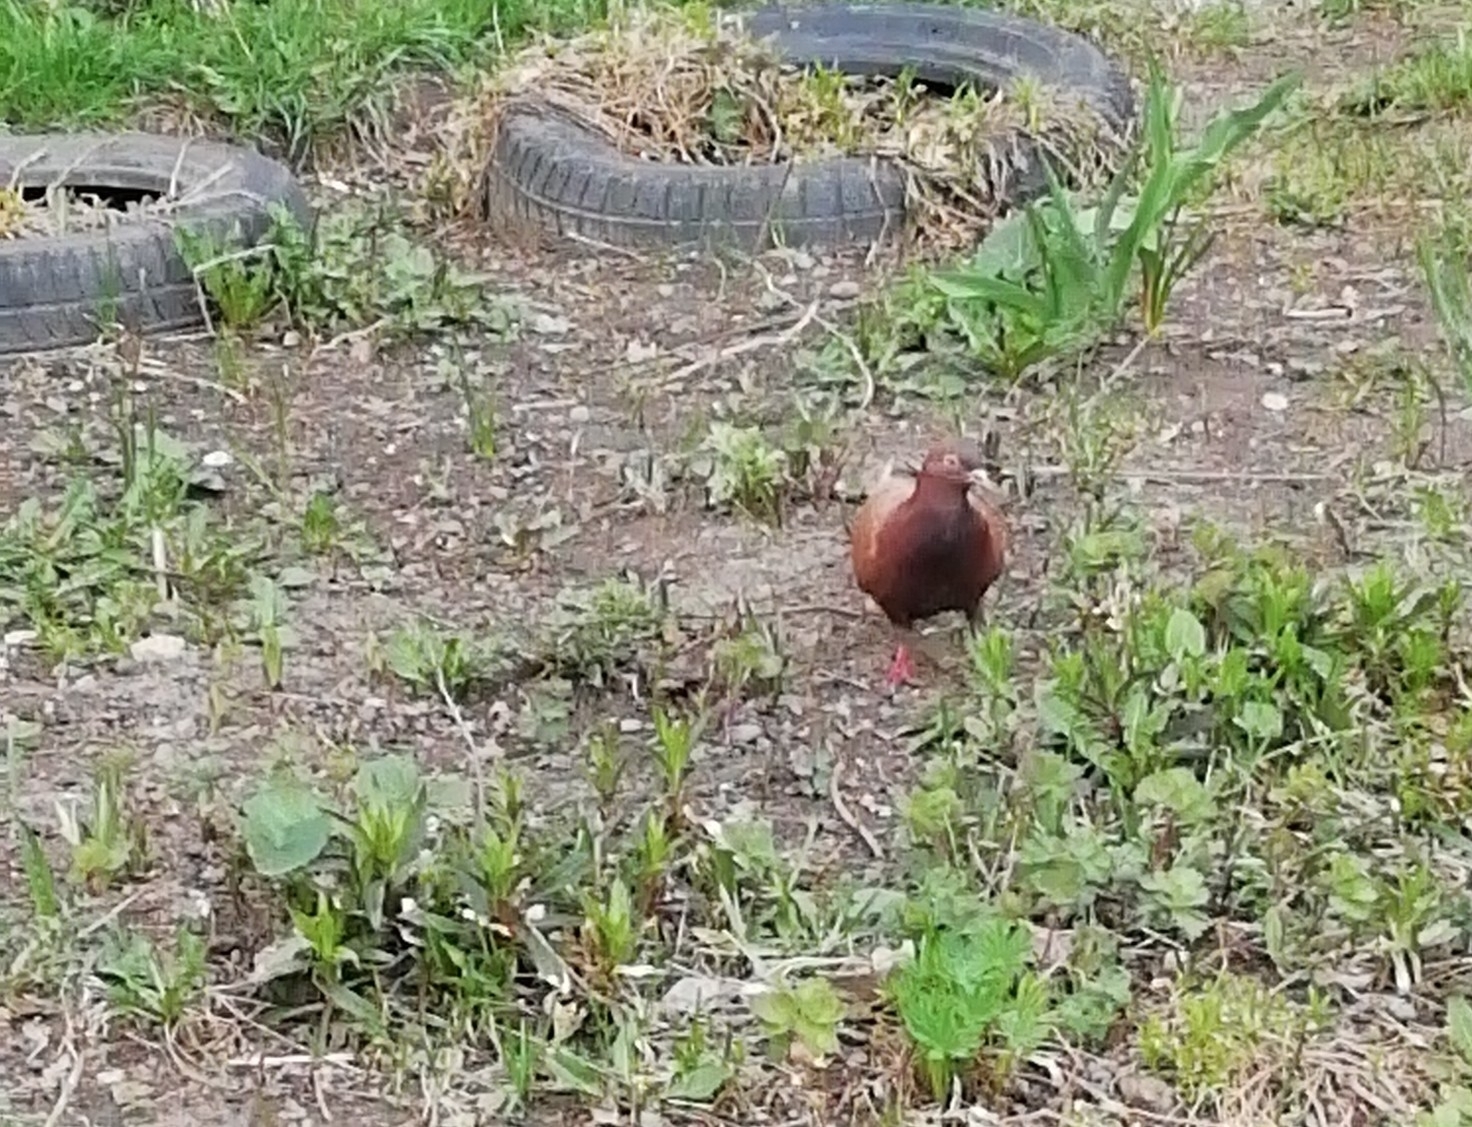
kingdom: Animalia
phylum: Chordata
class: Aves
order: Columbiformes
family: Columbidae
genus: Columba
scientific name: Columba livia
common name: Rock pigeon
